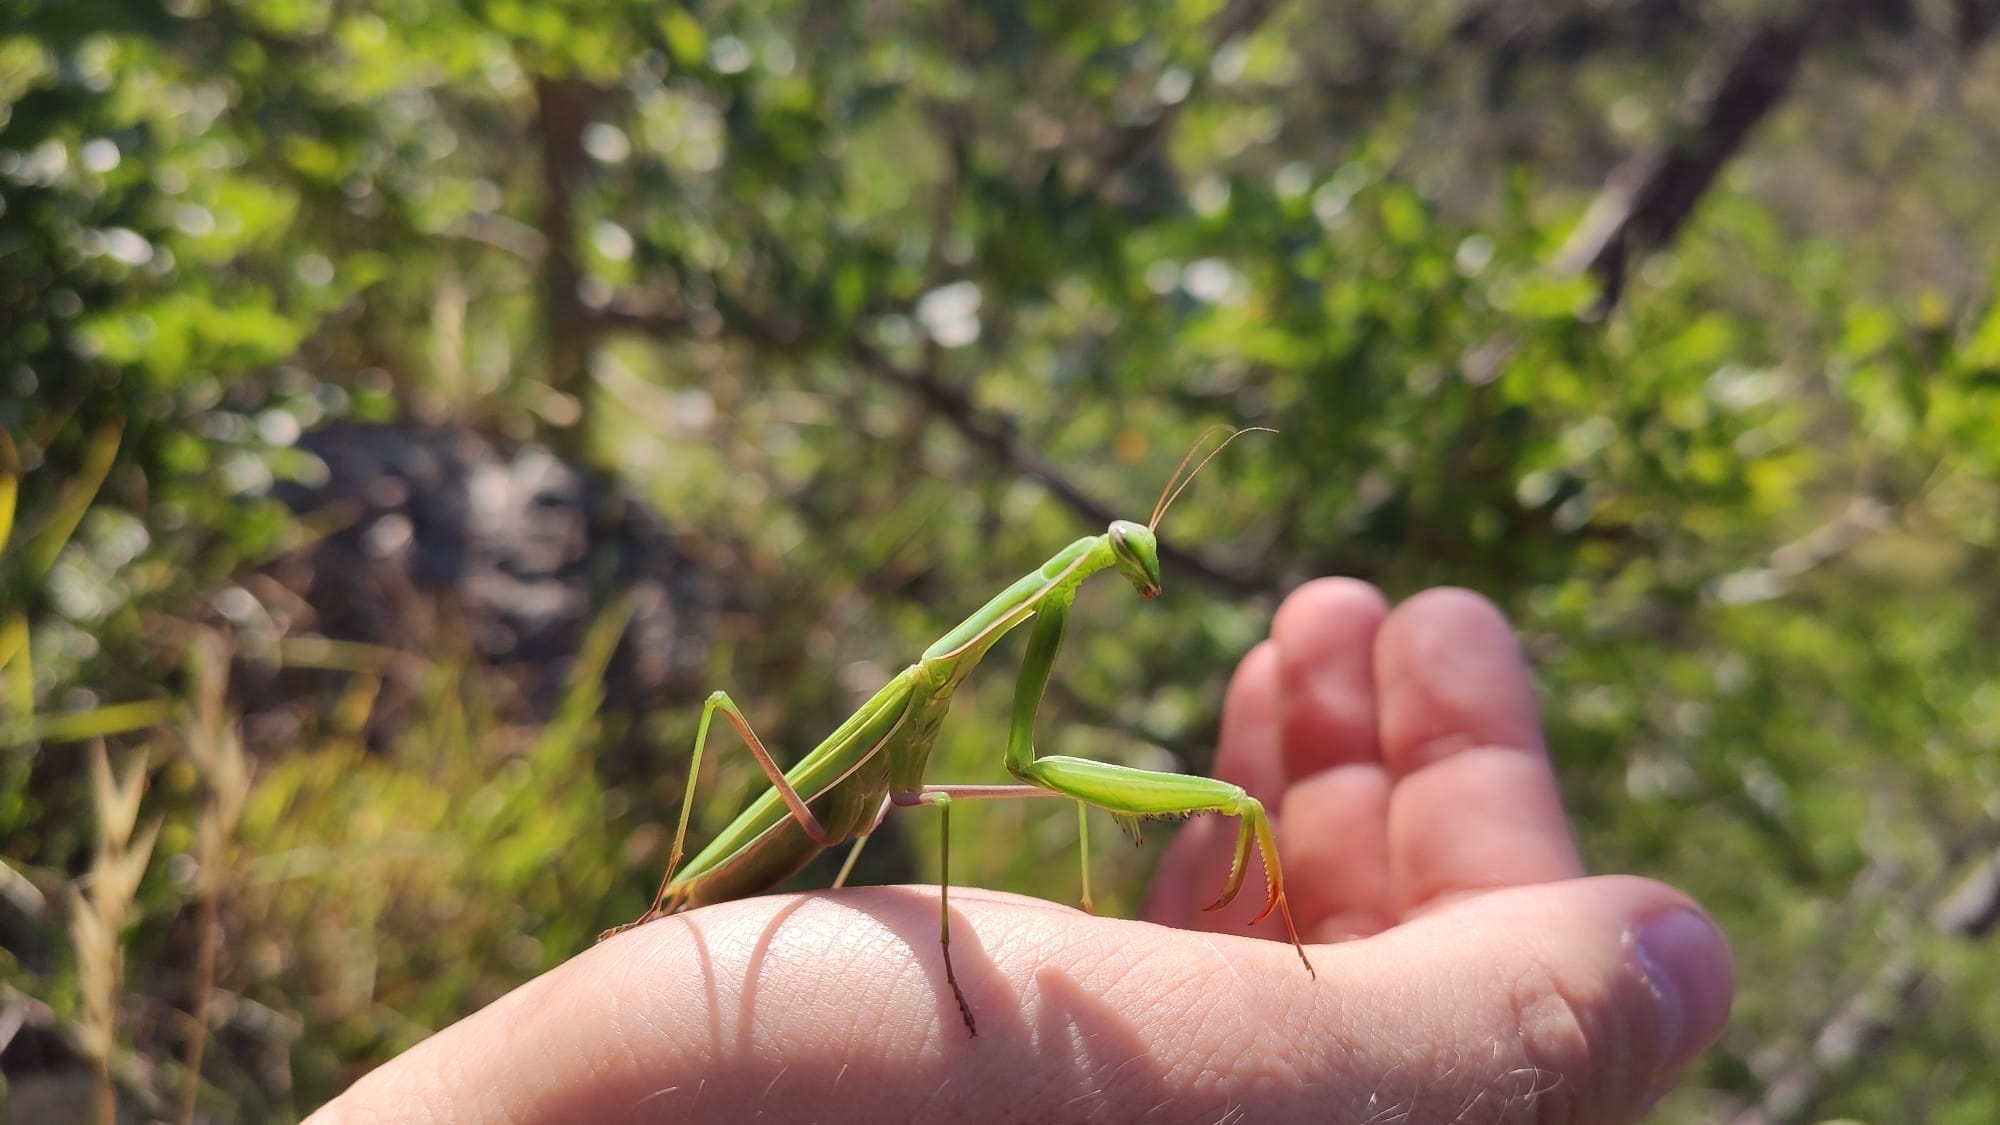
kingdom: Animalia
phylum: Arthropoda
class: Insecta
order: Mantodea
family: Mantidae
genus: Mantis
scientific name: Mantis religiosa
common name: Praying mantis
